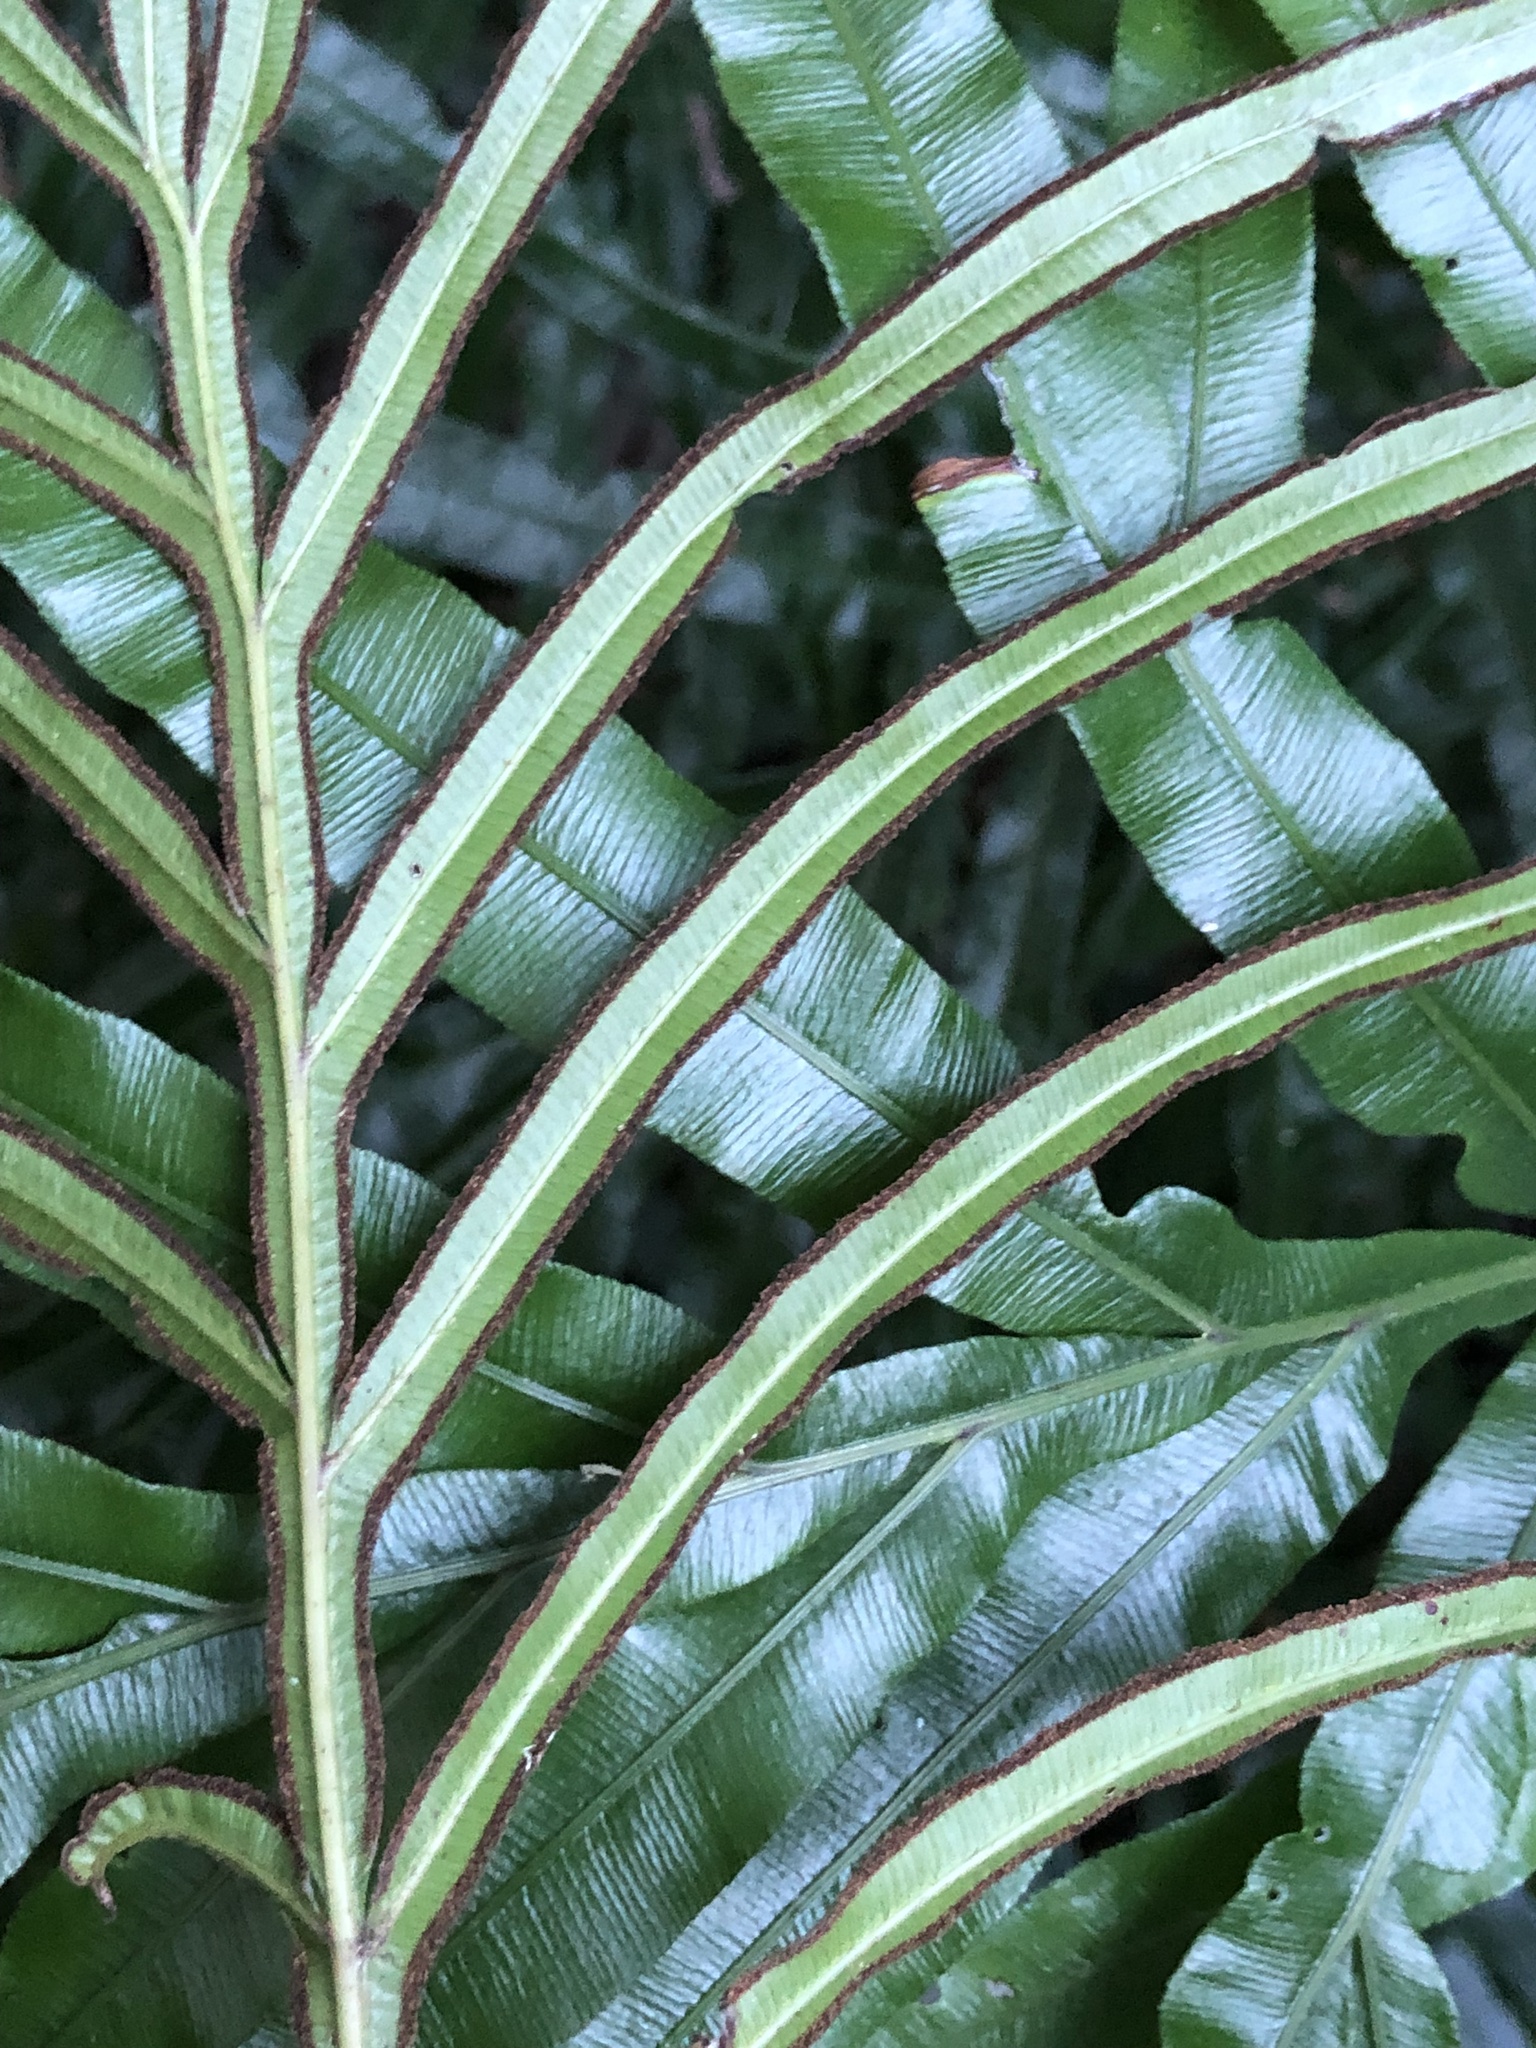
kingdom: Plantae
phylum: Tracheophyta
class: Polypodiopsida
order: Polypodiales
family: Pteridaceae
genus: Pteris
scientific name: Pteris umbrosa
